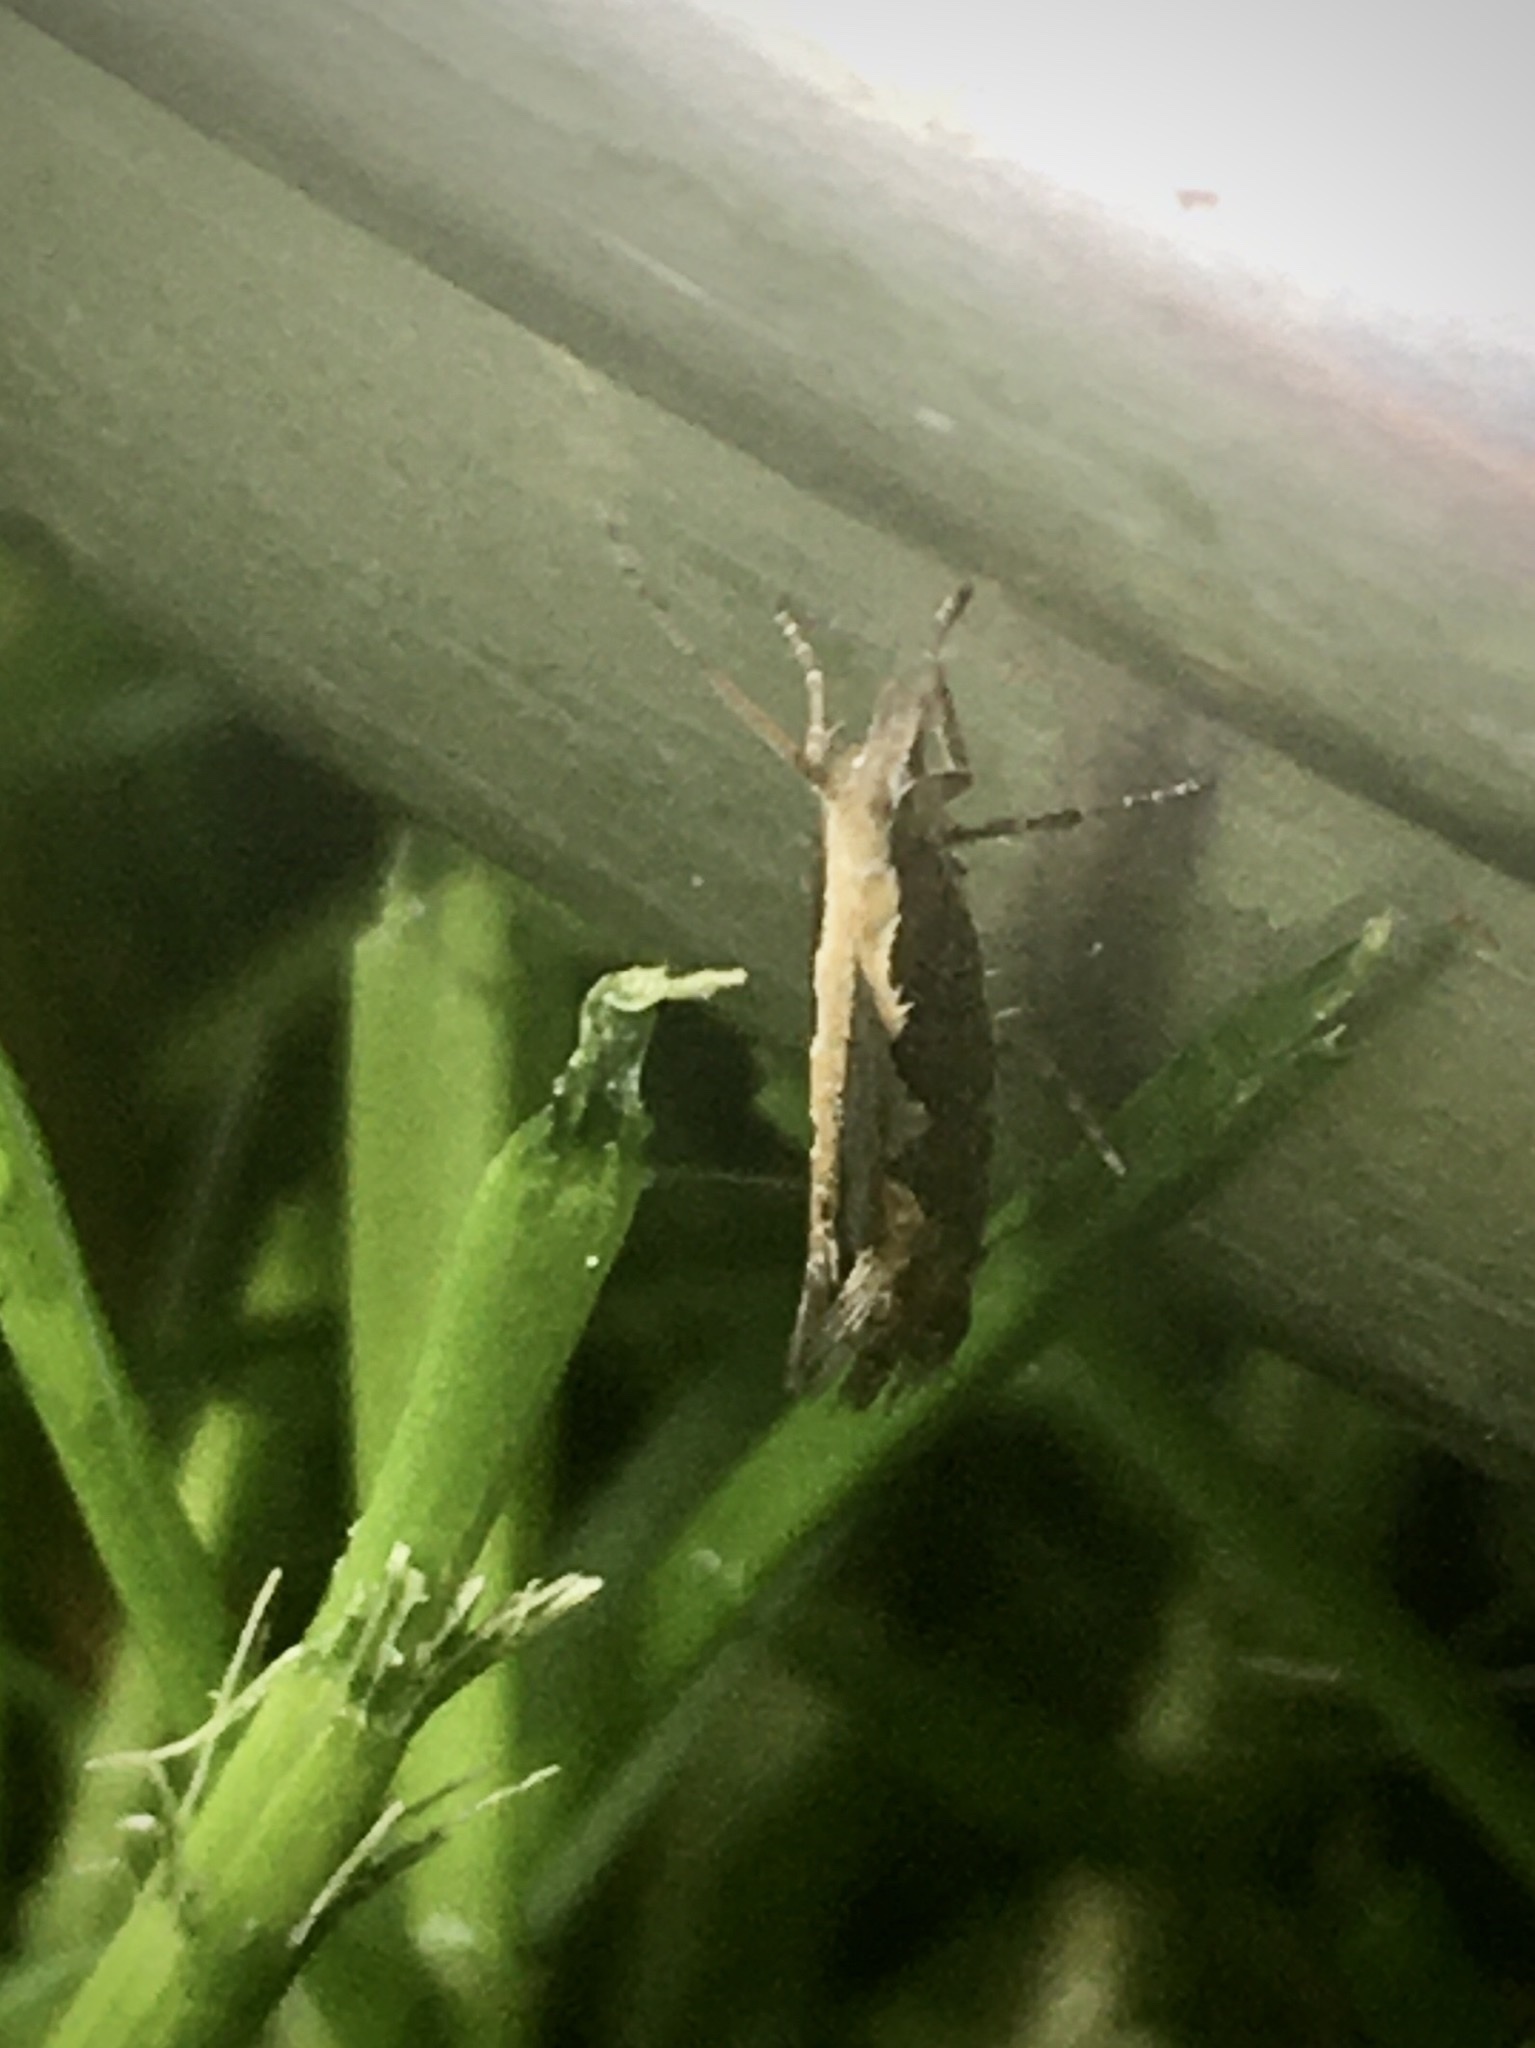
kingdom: Animalia
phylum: Arthropoda
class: Insecta
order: Lepidoptera
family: Plutellidae
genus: Plutella
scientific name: Plutella xylostella
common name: Diamond-back moth
